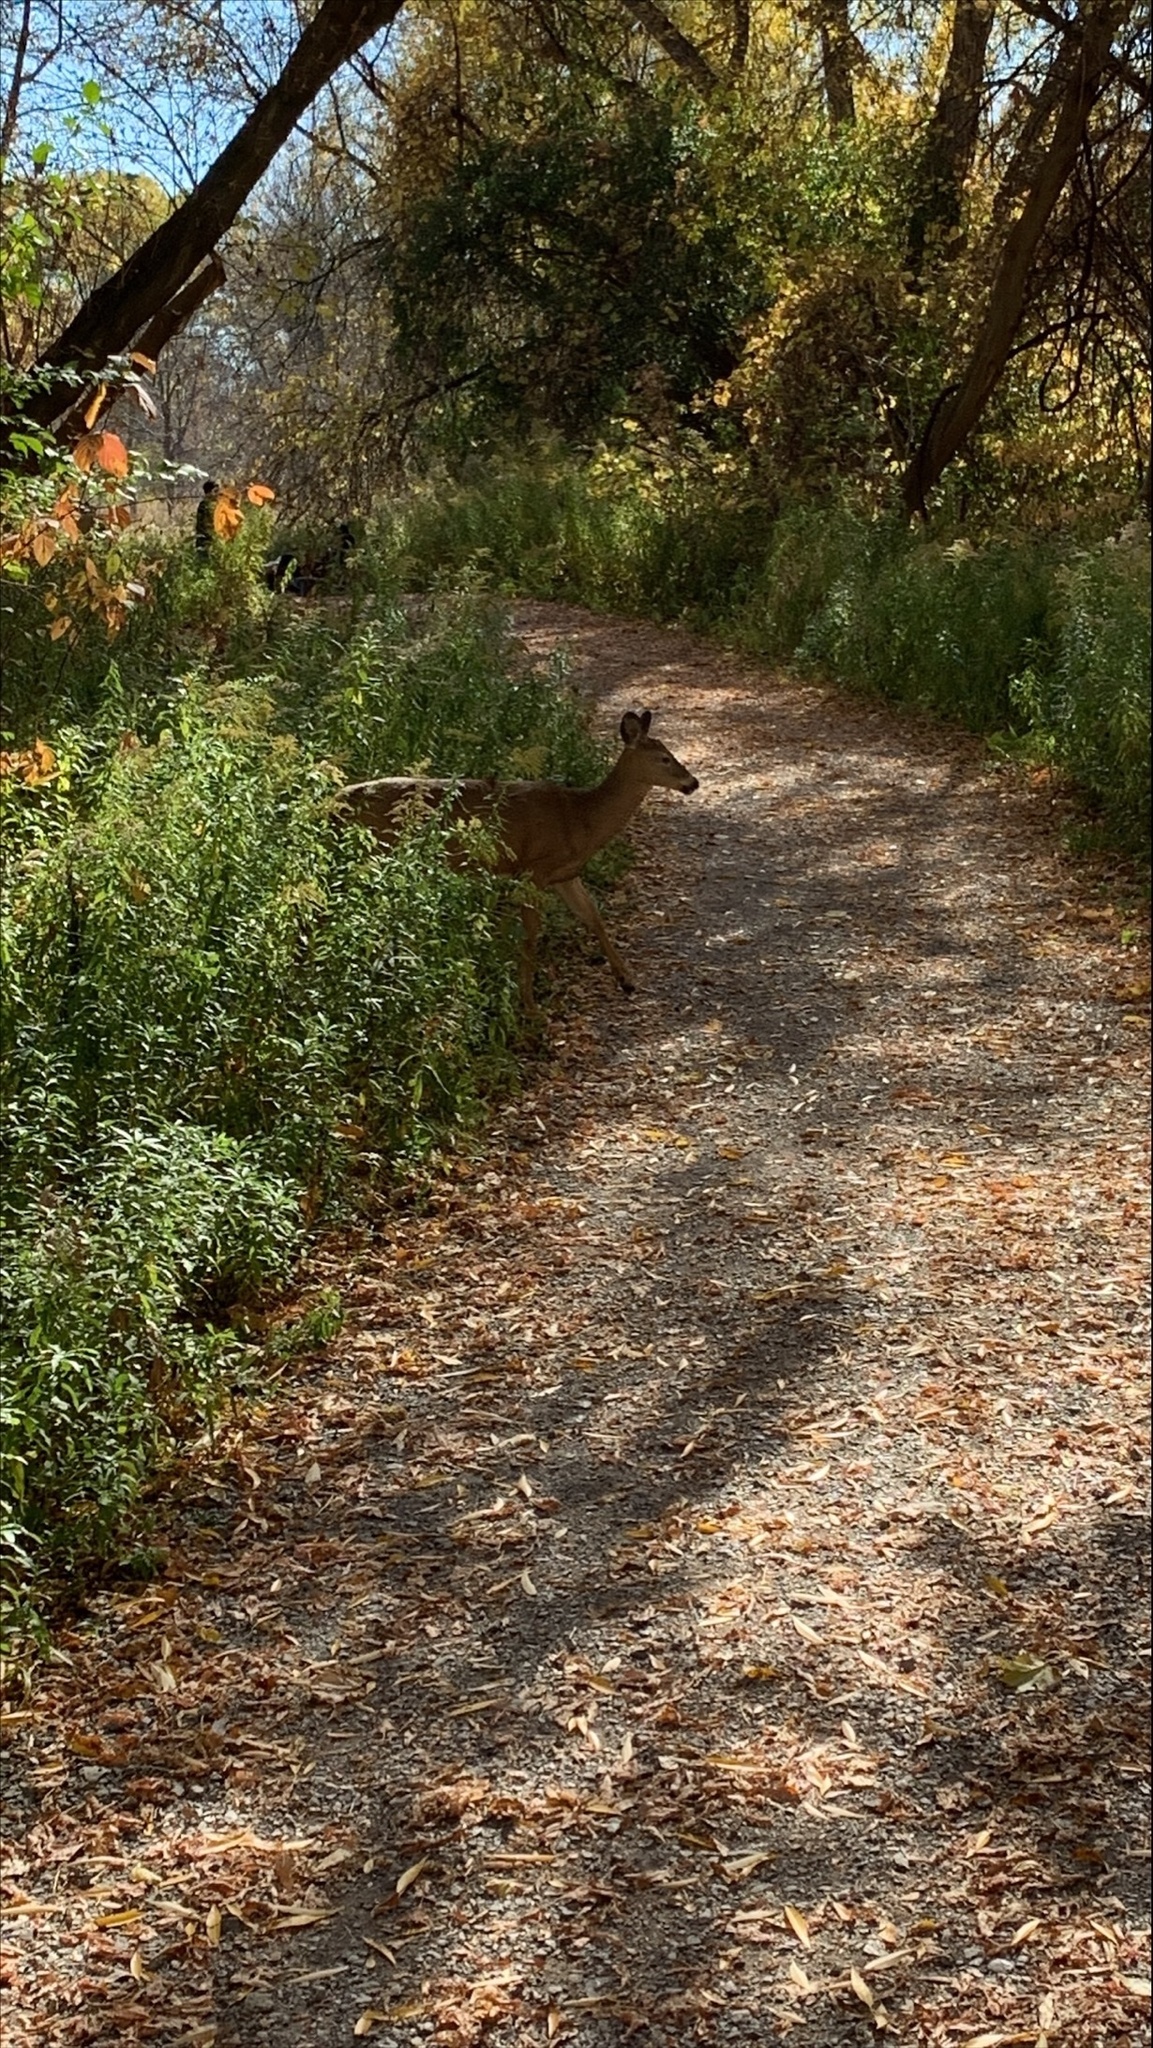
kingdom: Animalia
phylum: Chordata
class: Mammalia
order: Artiodactyla
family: Cervidae
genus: Odocoileus
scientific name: Odocoileus virginianus
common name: White-tailed deer
